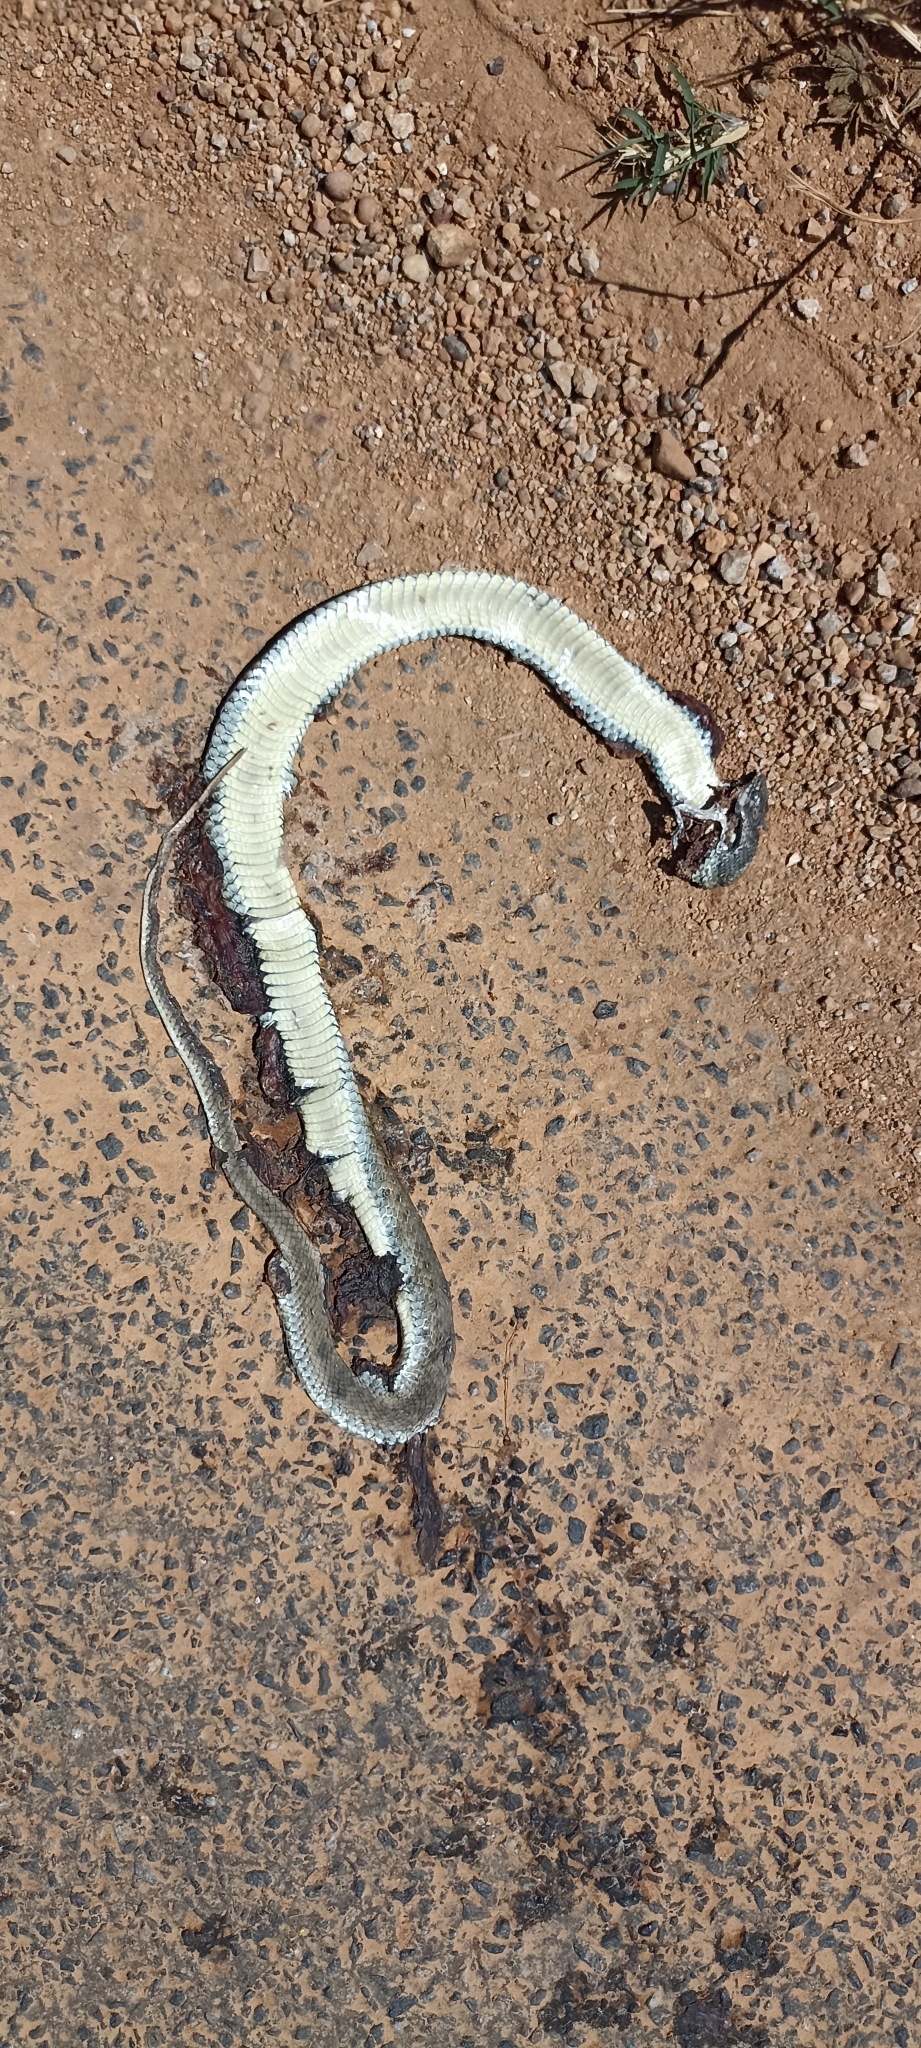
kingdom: Animalia
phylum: Chordata
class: Squamata
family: Psammophiidae
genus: Malpolon
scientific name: Malpolon monspessulanus
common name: Montpellier snake
